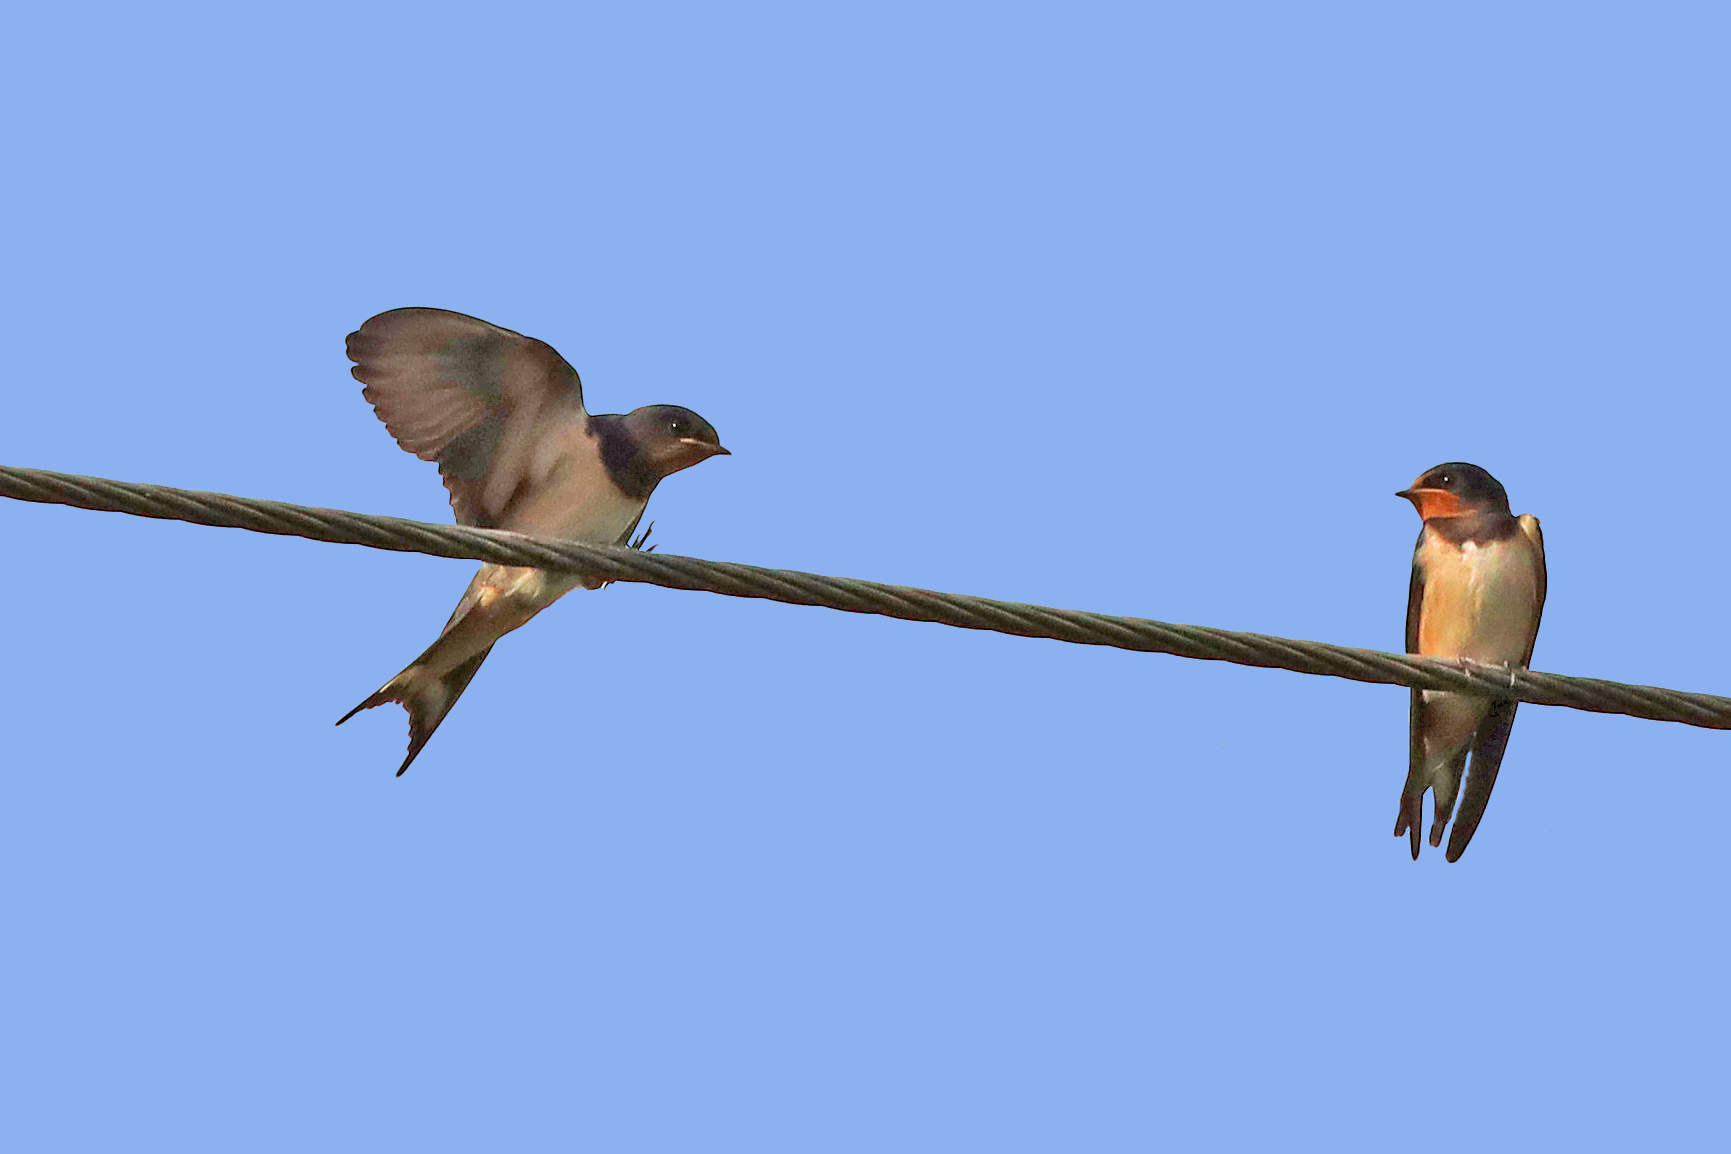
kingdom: Animalia
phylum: Chordata
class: Aves
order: Passeriformes
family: Hirundinidae
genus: Hirundo
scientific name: Hirundo rustica
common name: Barn swallow
